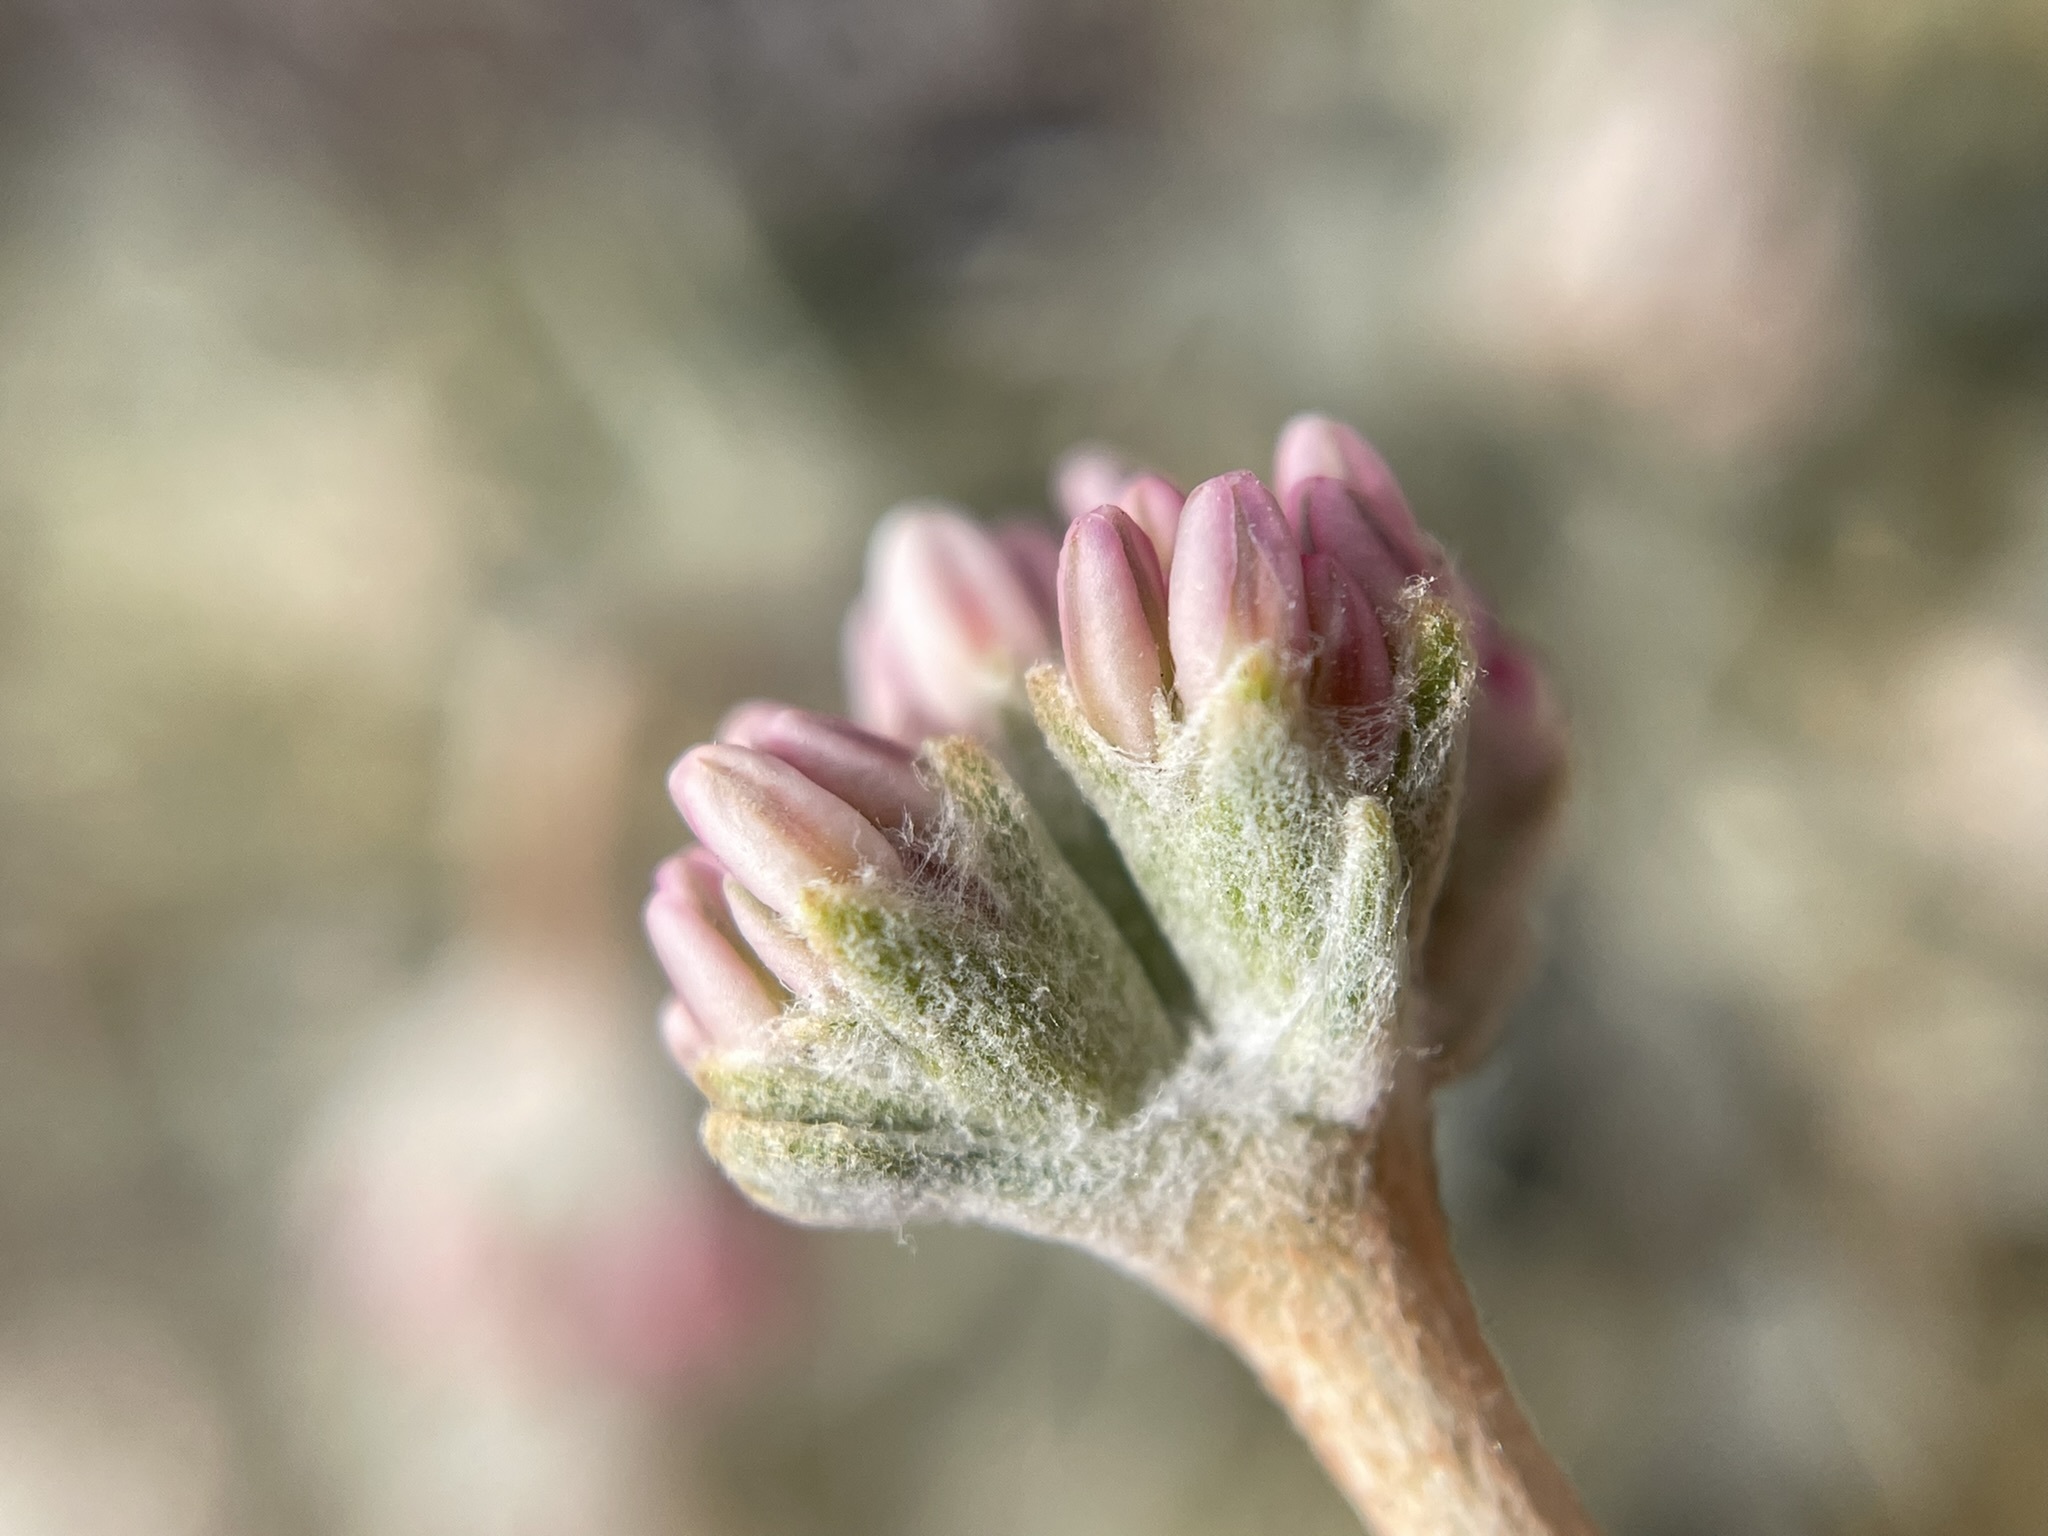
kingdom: Plantae
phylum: Tracheophyta
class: Magnoliopsida
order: Caryophyllales
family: Polygonaceae
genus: Eriogonum
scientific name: Eriogonum ovalifolium
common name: Cushion buckwheat
